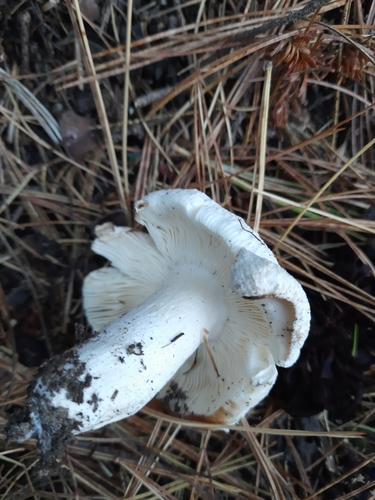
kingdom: Fungi
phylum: Basidiomycota
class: Agaricomycetes
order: Russulales
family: Russulaceae
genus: Russula
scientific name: Russula
